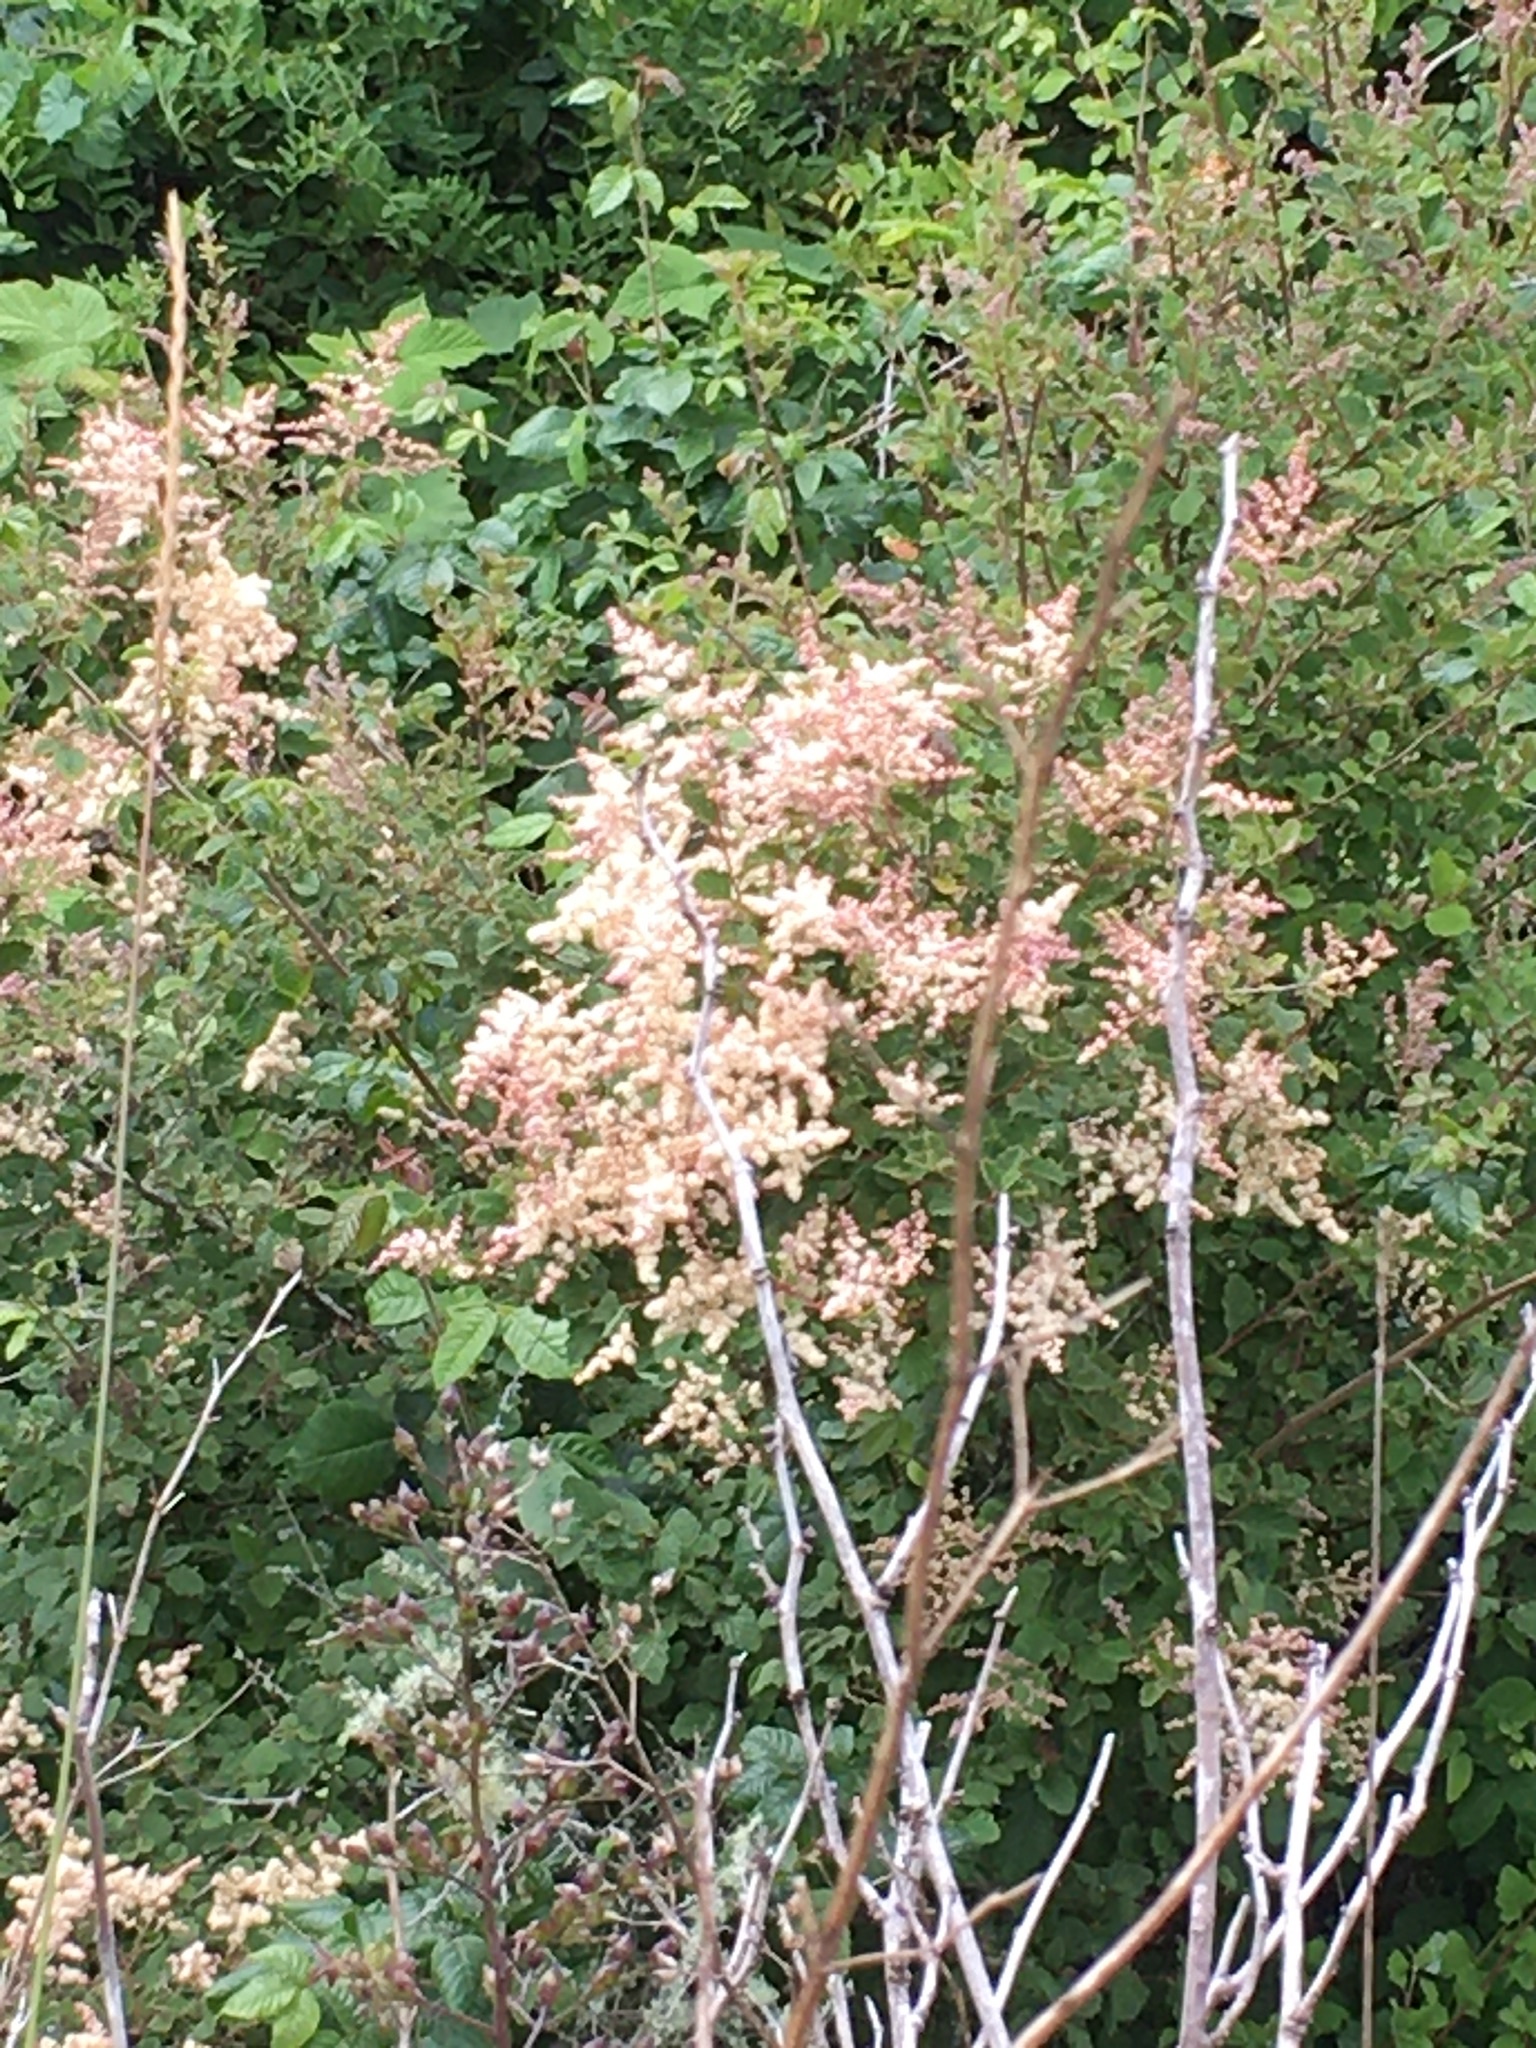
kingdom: Plantae
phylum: Tracheophyta
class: Magnoliopsida
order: Rosales
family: Rosaceae
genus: Holodiscus
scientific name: Holodiscus discolor
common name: Oceanspray
